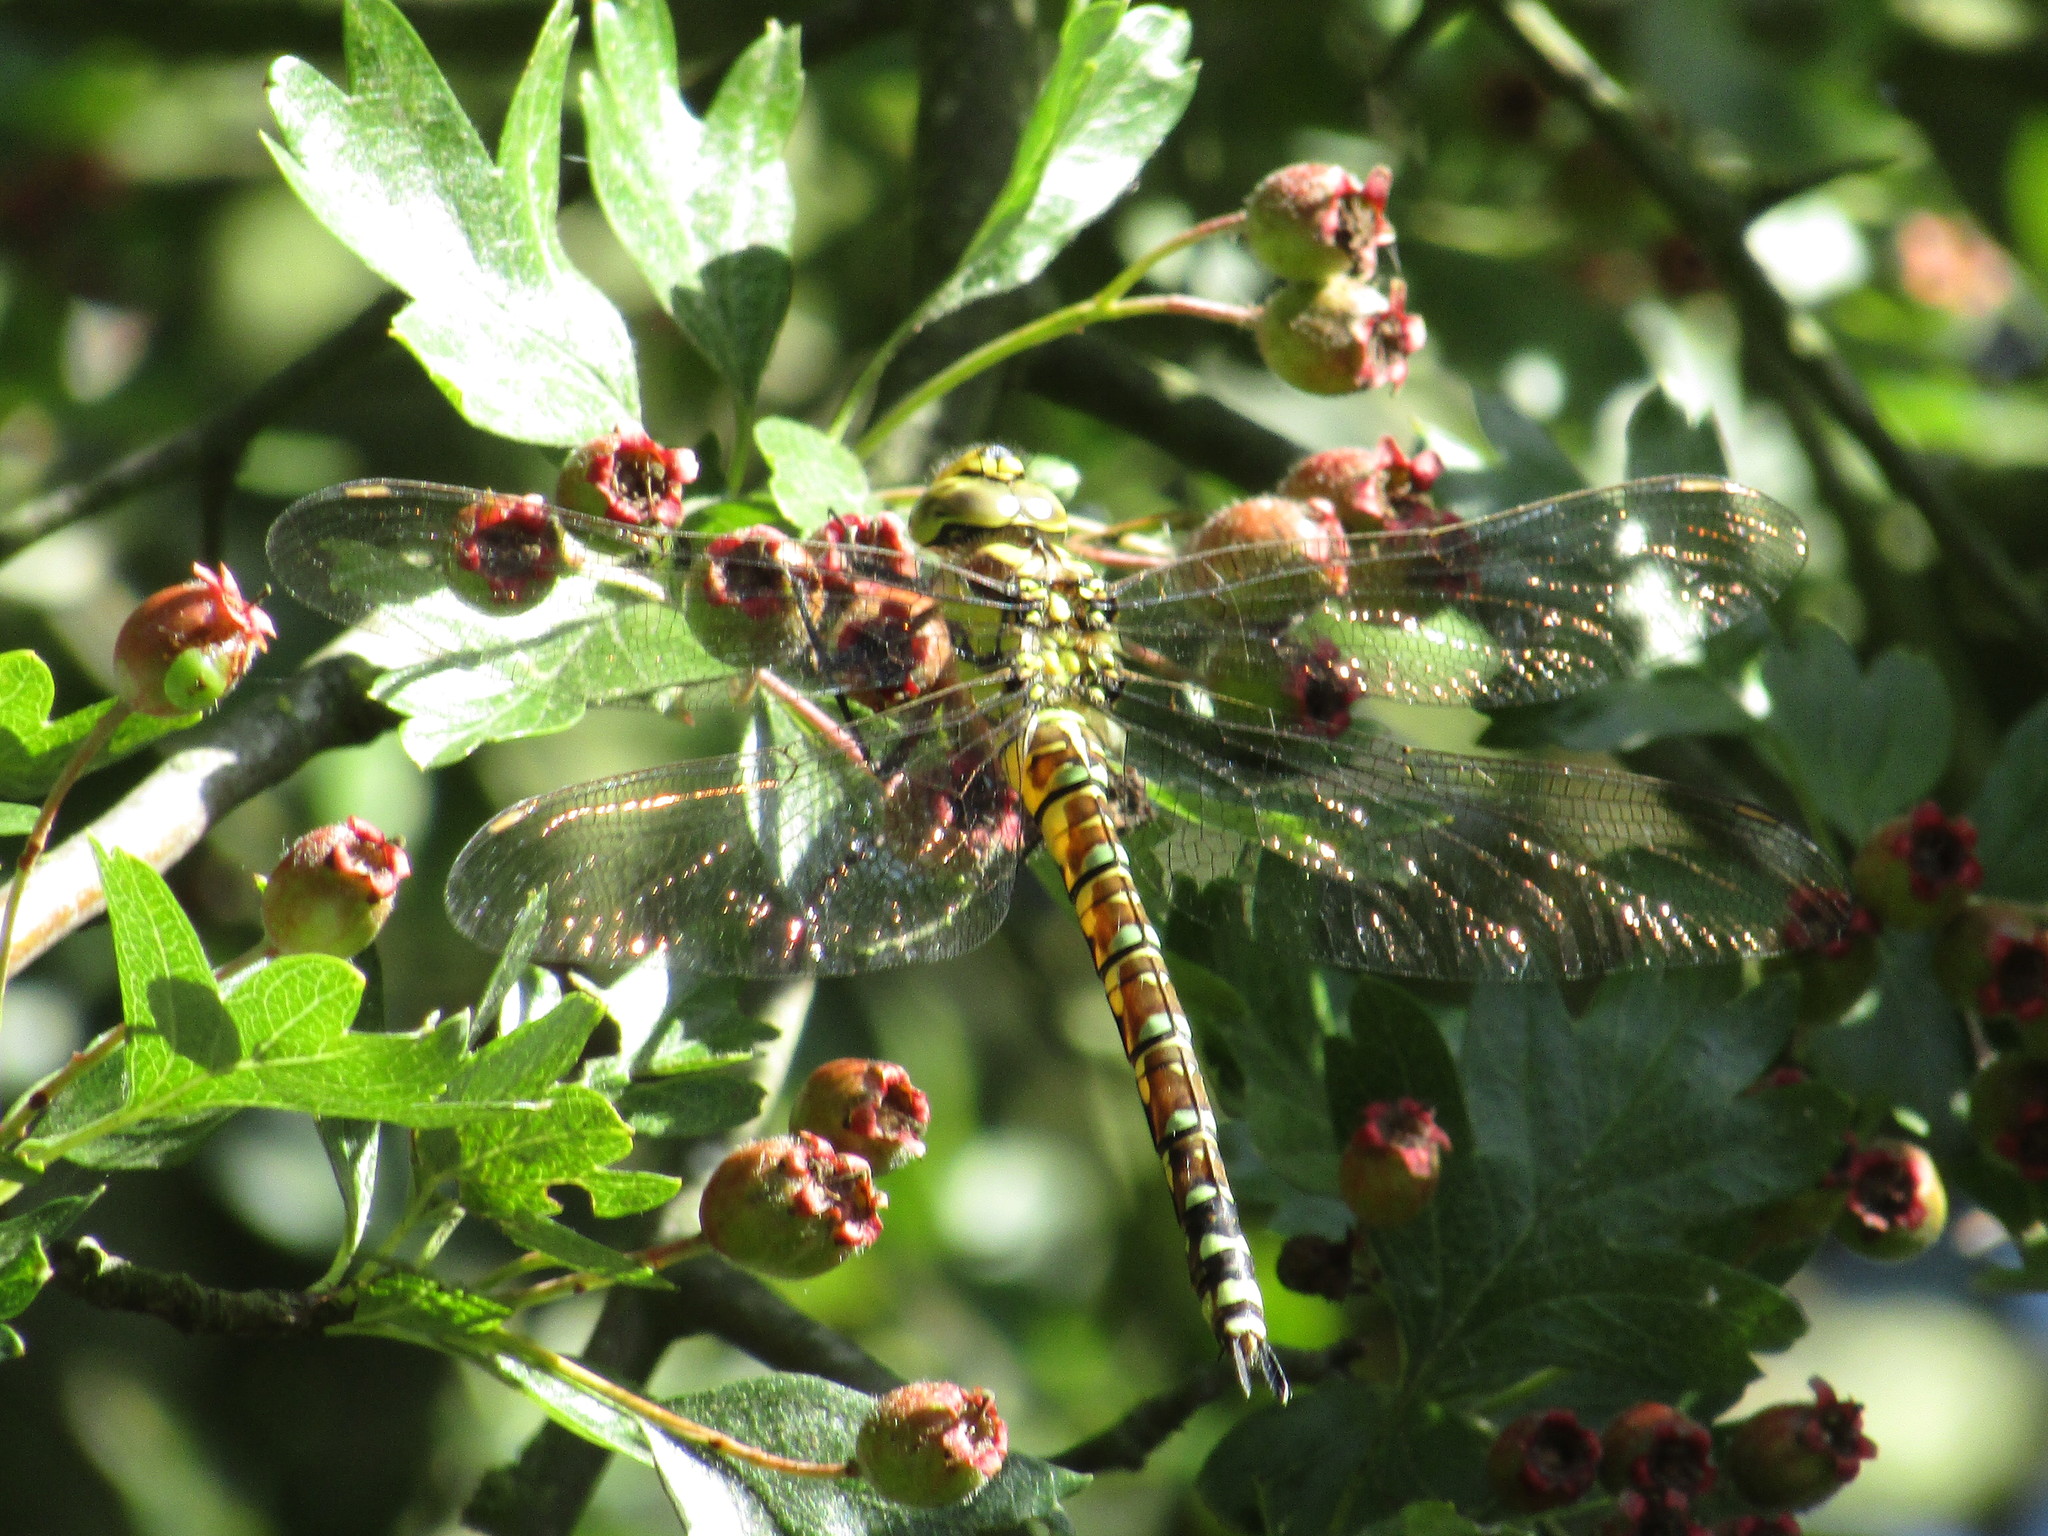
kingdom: Animalia
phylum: Arthropoda
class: Insecta
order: Odonata
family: Aeshnidae
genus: Aeshna
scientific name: Aeshna cyanea
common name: Southern hawker
